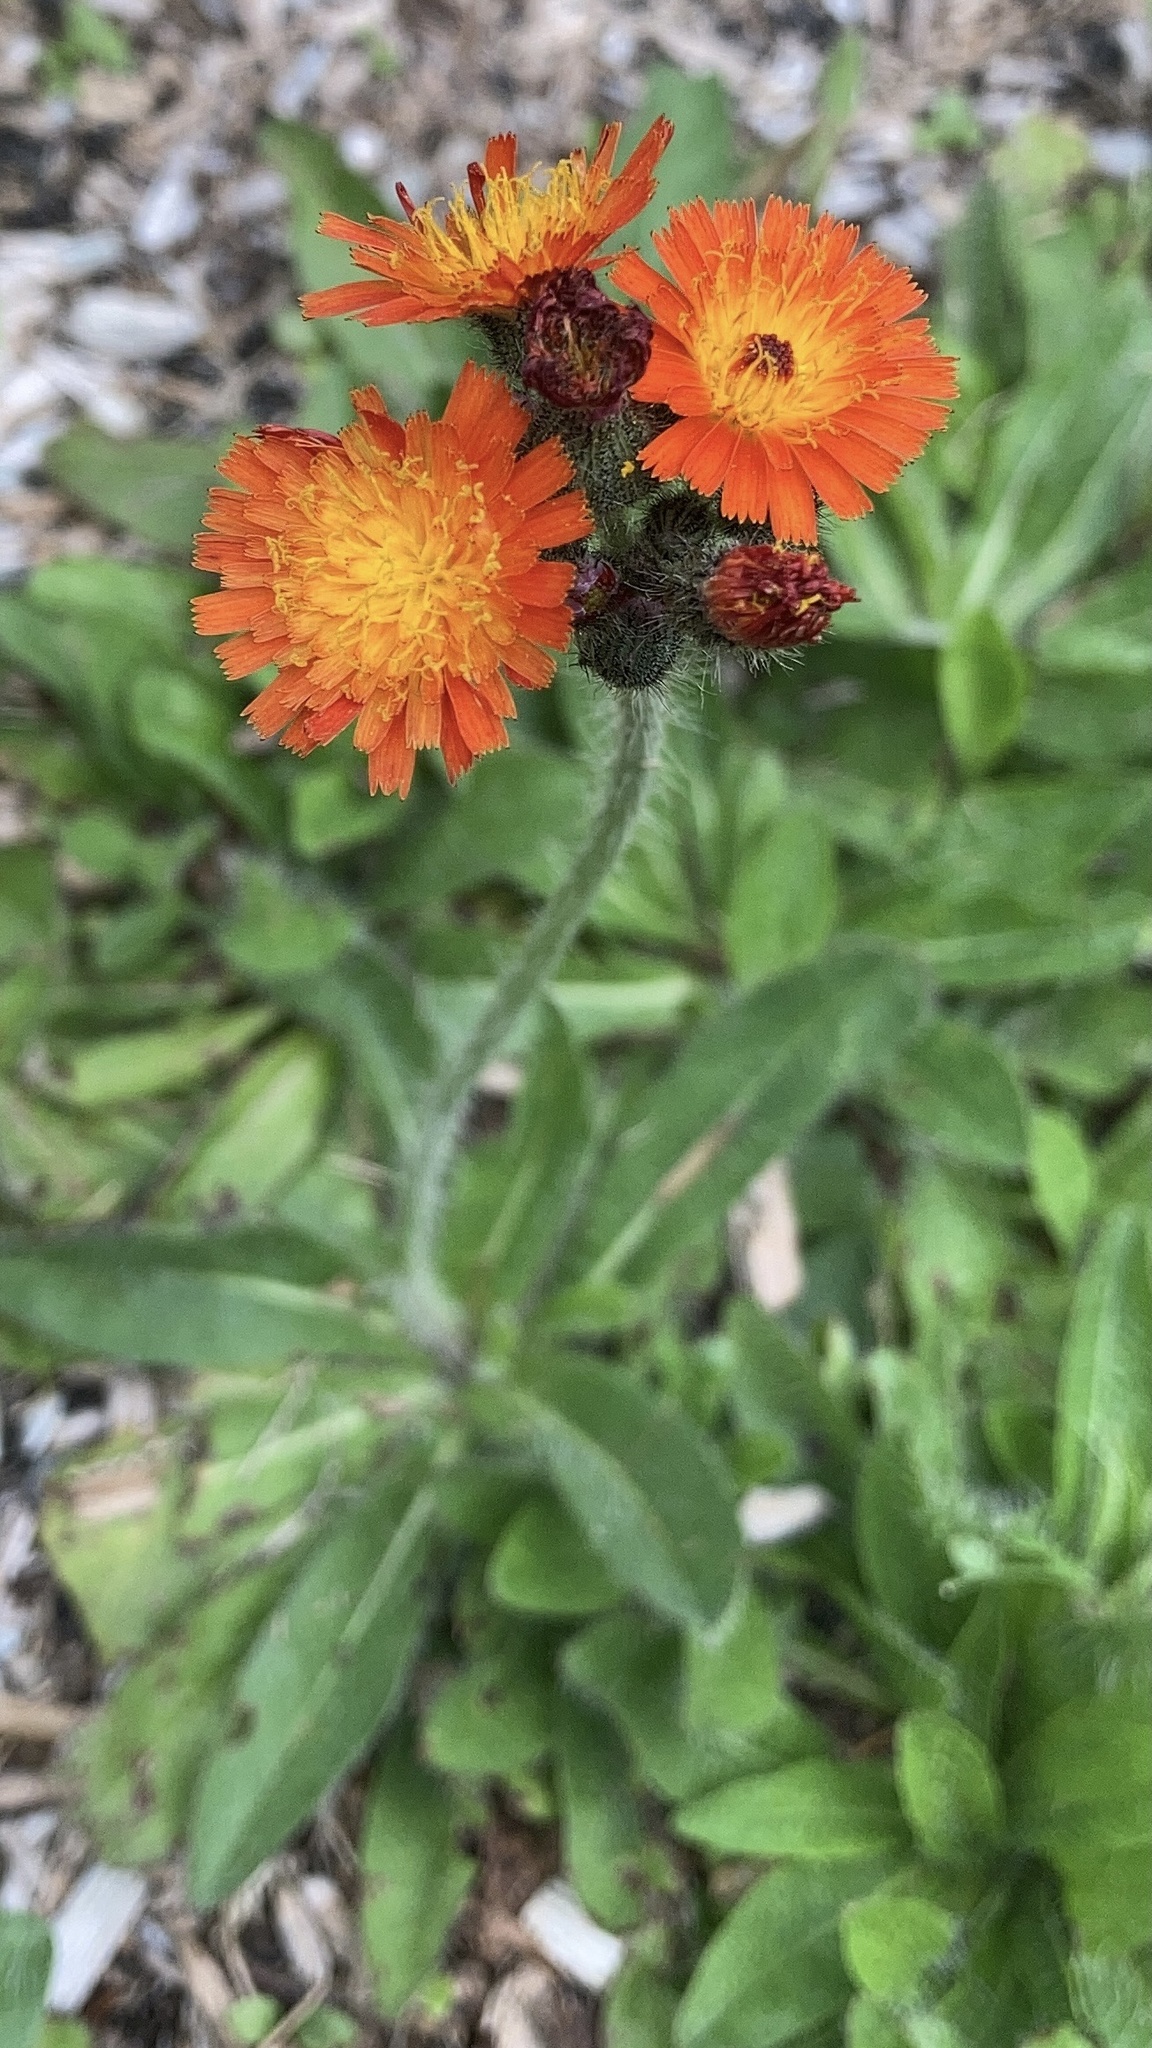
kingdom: Plantae
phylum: Tracheophyta
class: Magnoliopsida
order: Asterales
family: Asteraceae
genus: Pilosella
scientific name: Pilosella aurantiaca
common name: Fox-and-cubs
